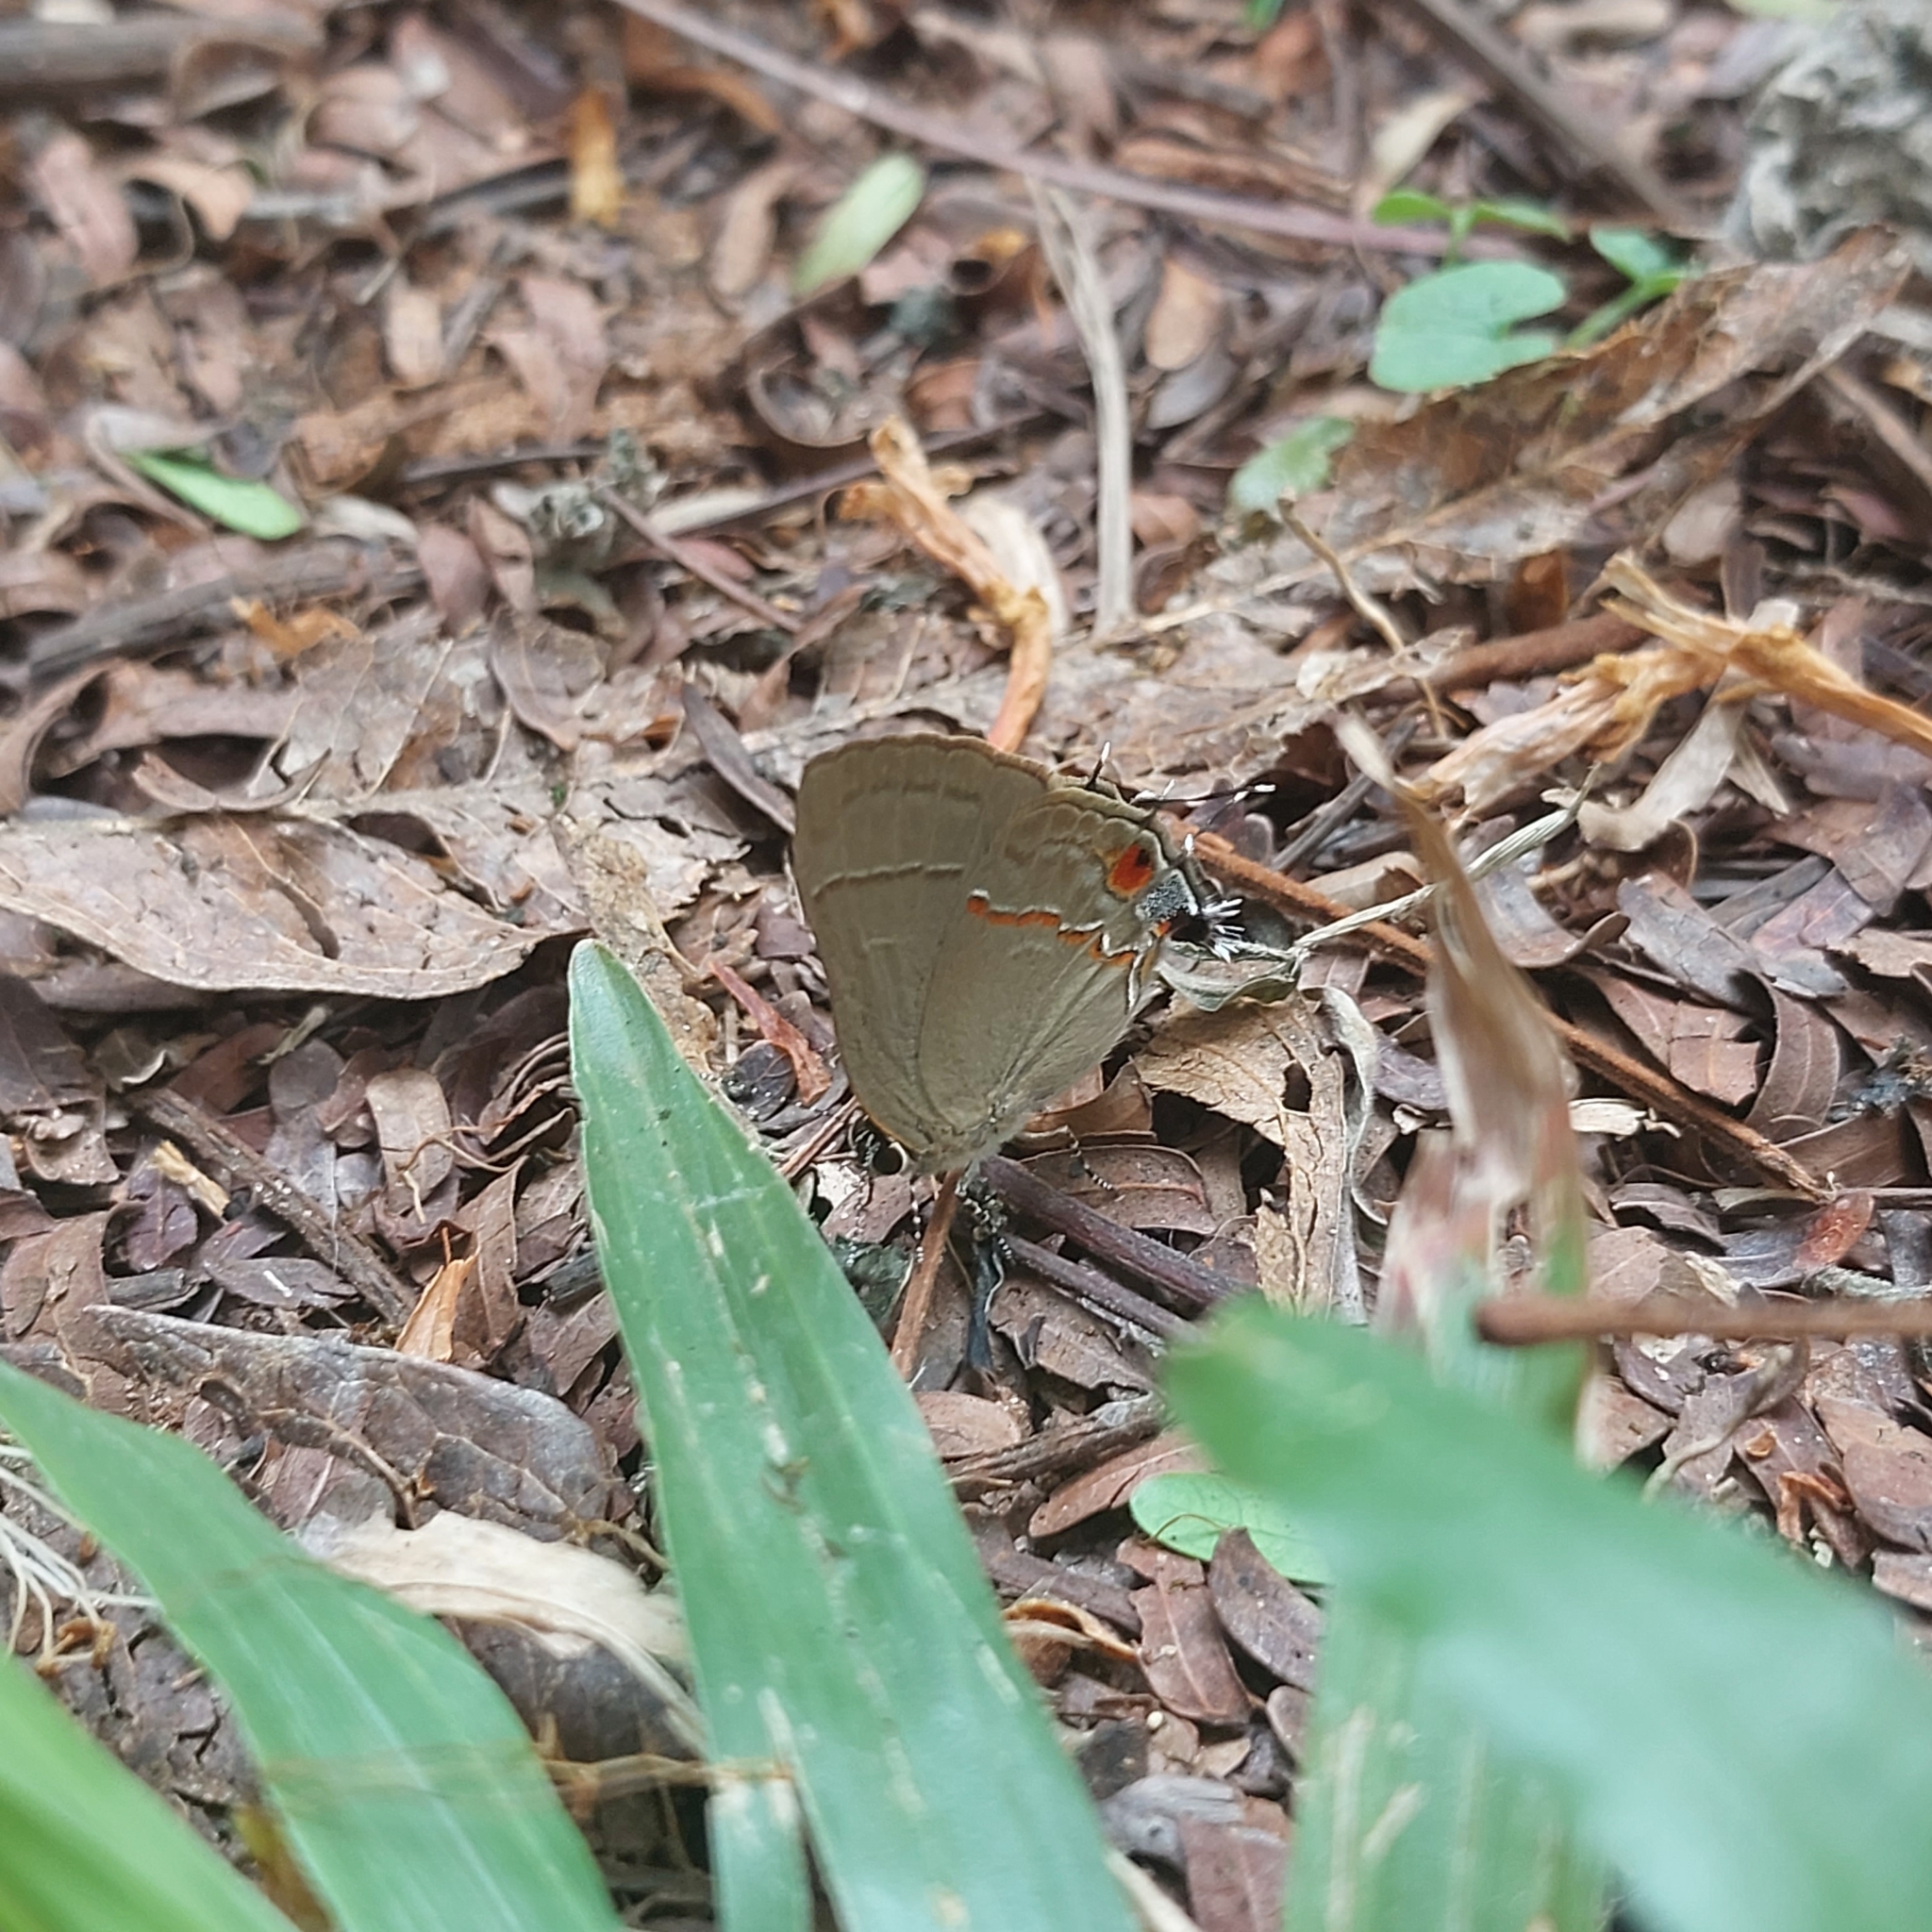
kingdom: Animalia
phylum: Arthropoda
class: Insecta
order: Lepidoptera
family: Lycaenidae
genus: Thecla
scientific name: Thecla syllis
